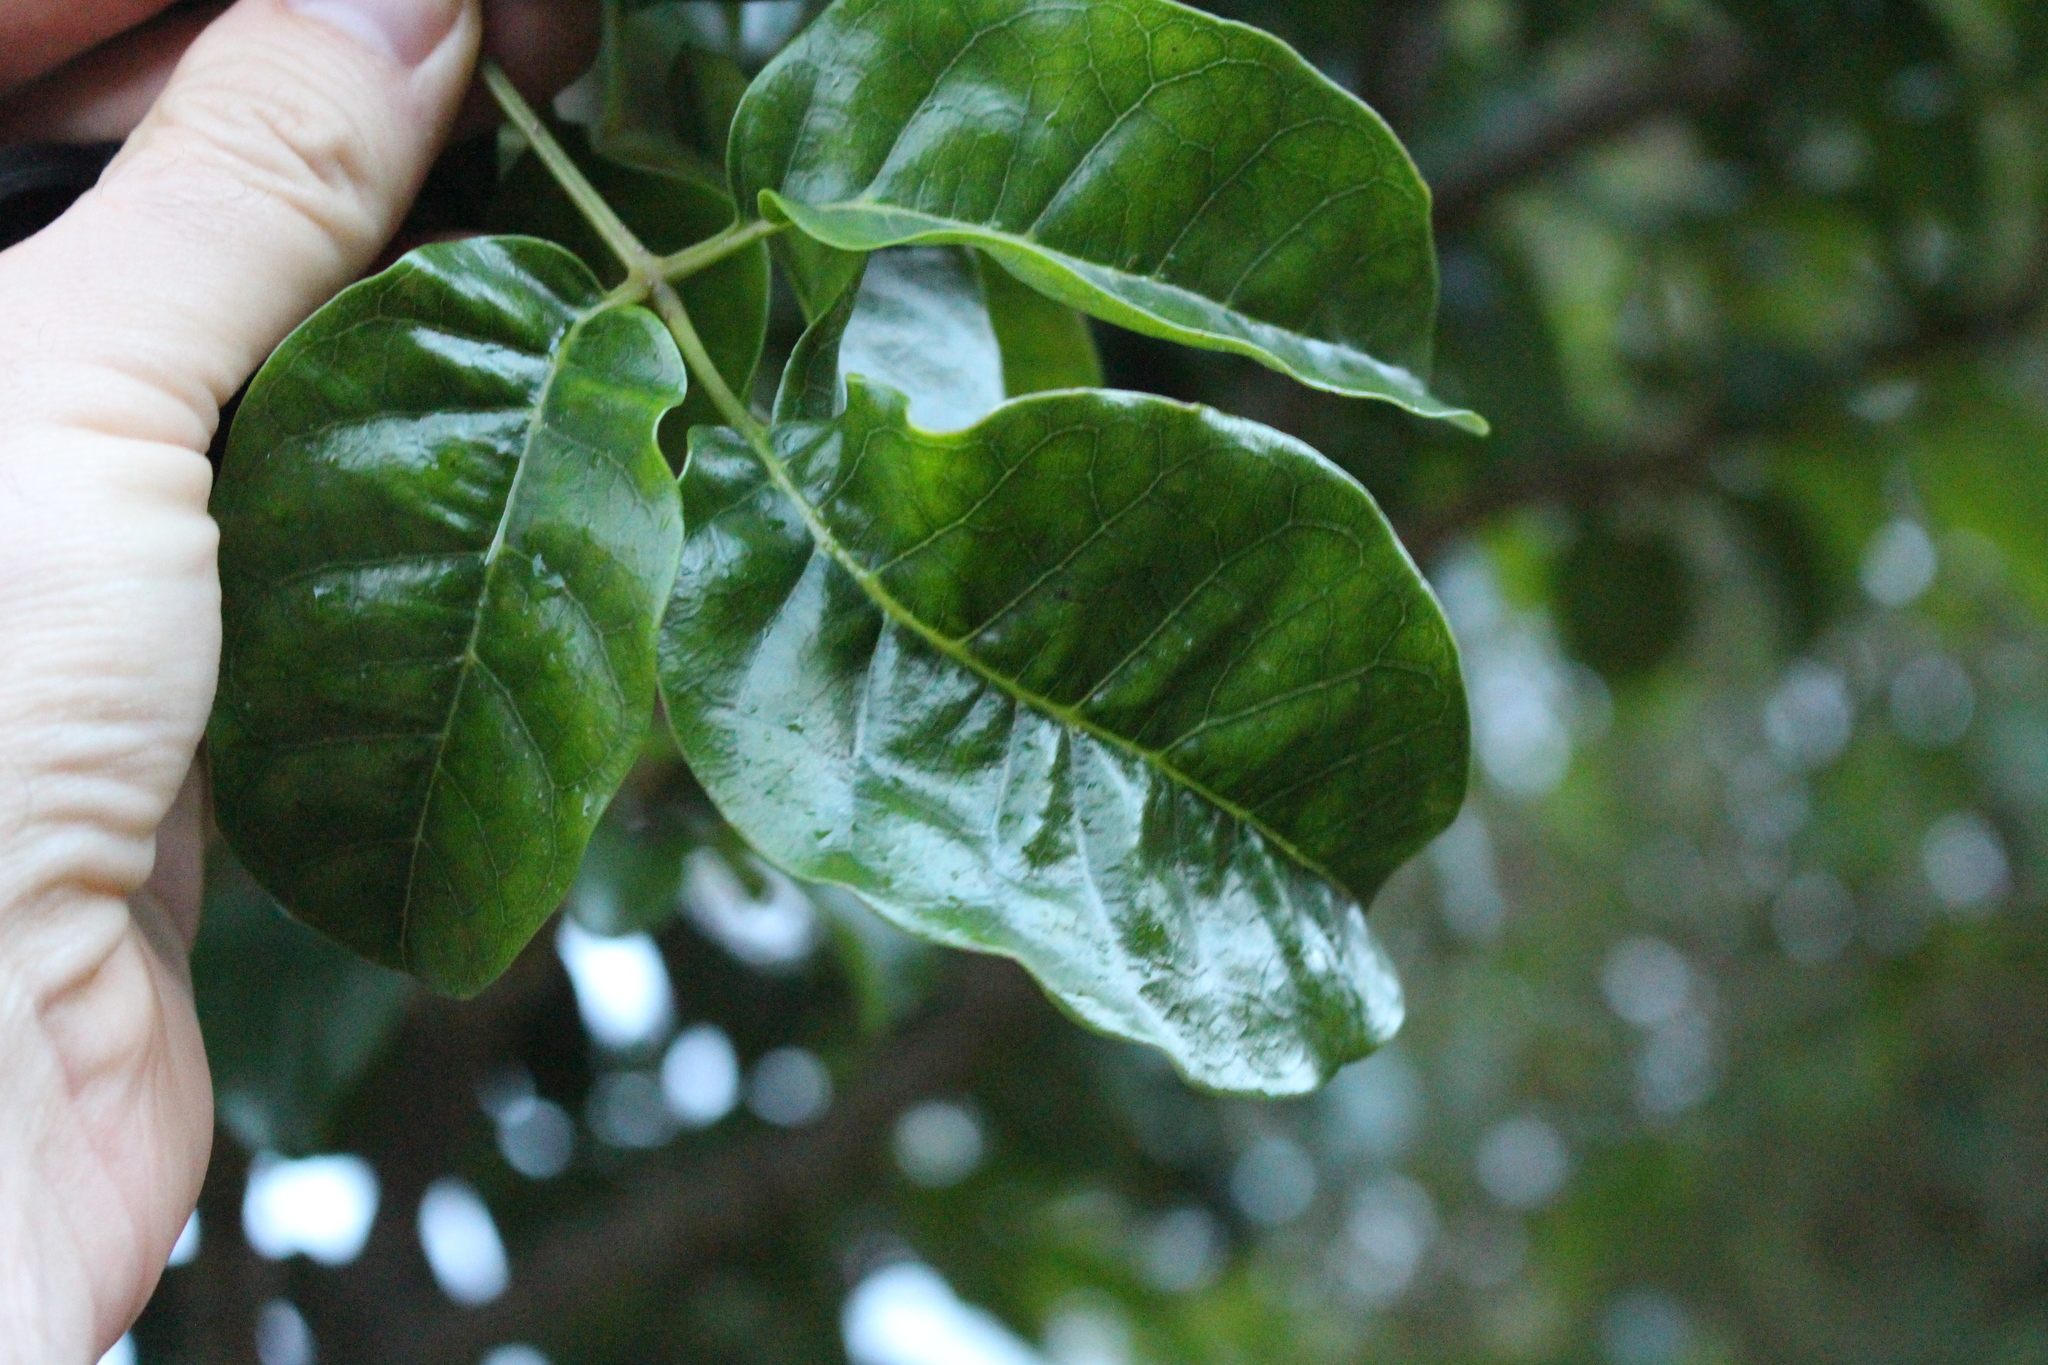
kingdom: Plantae
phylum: Tracheophyta
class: Magnoliopsida
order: Lamiales
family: Lamiaceae
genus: Vitex
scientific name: Vitex lucens
